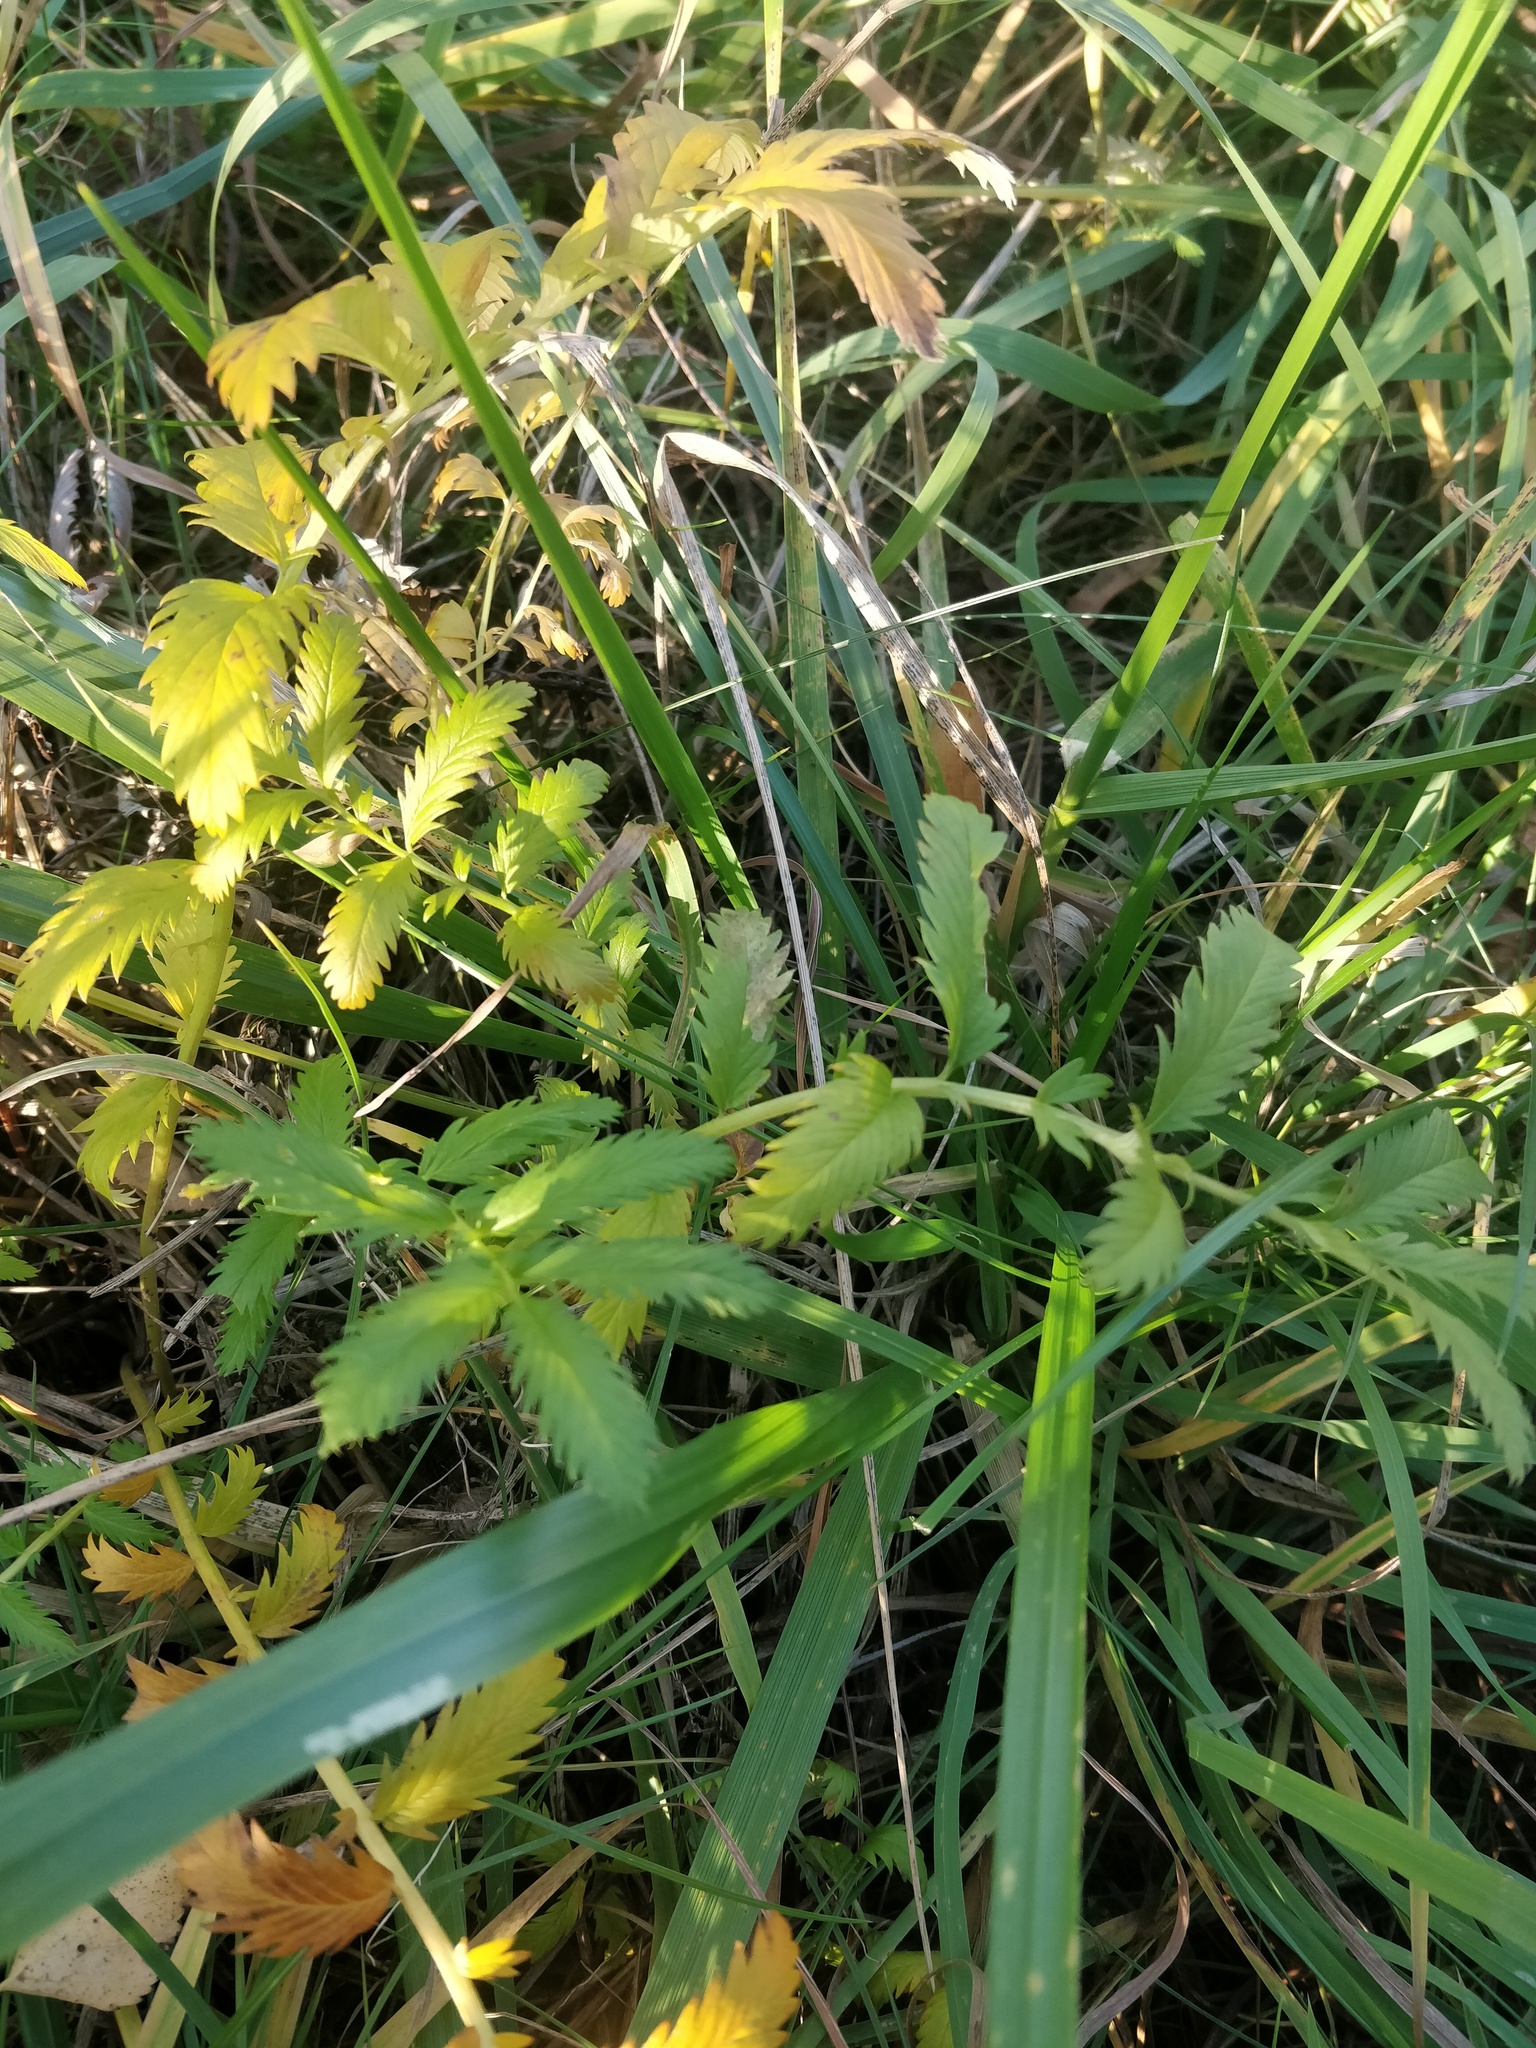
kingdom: Plantae
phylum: Tracheophyta
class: Magnoliopsida
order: Rosales
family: Rosaceae
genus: Argentina
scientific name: Argentina anserina
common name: Common silverweed
